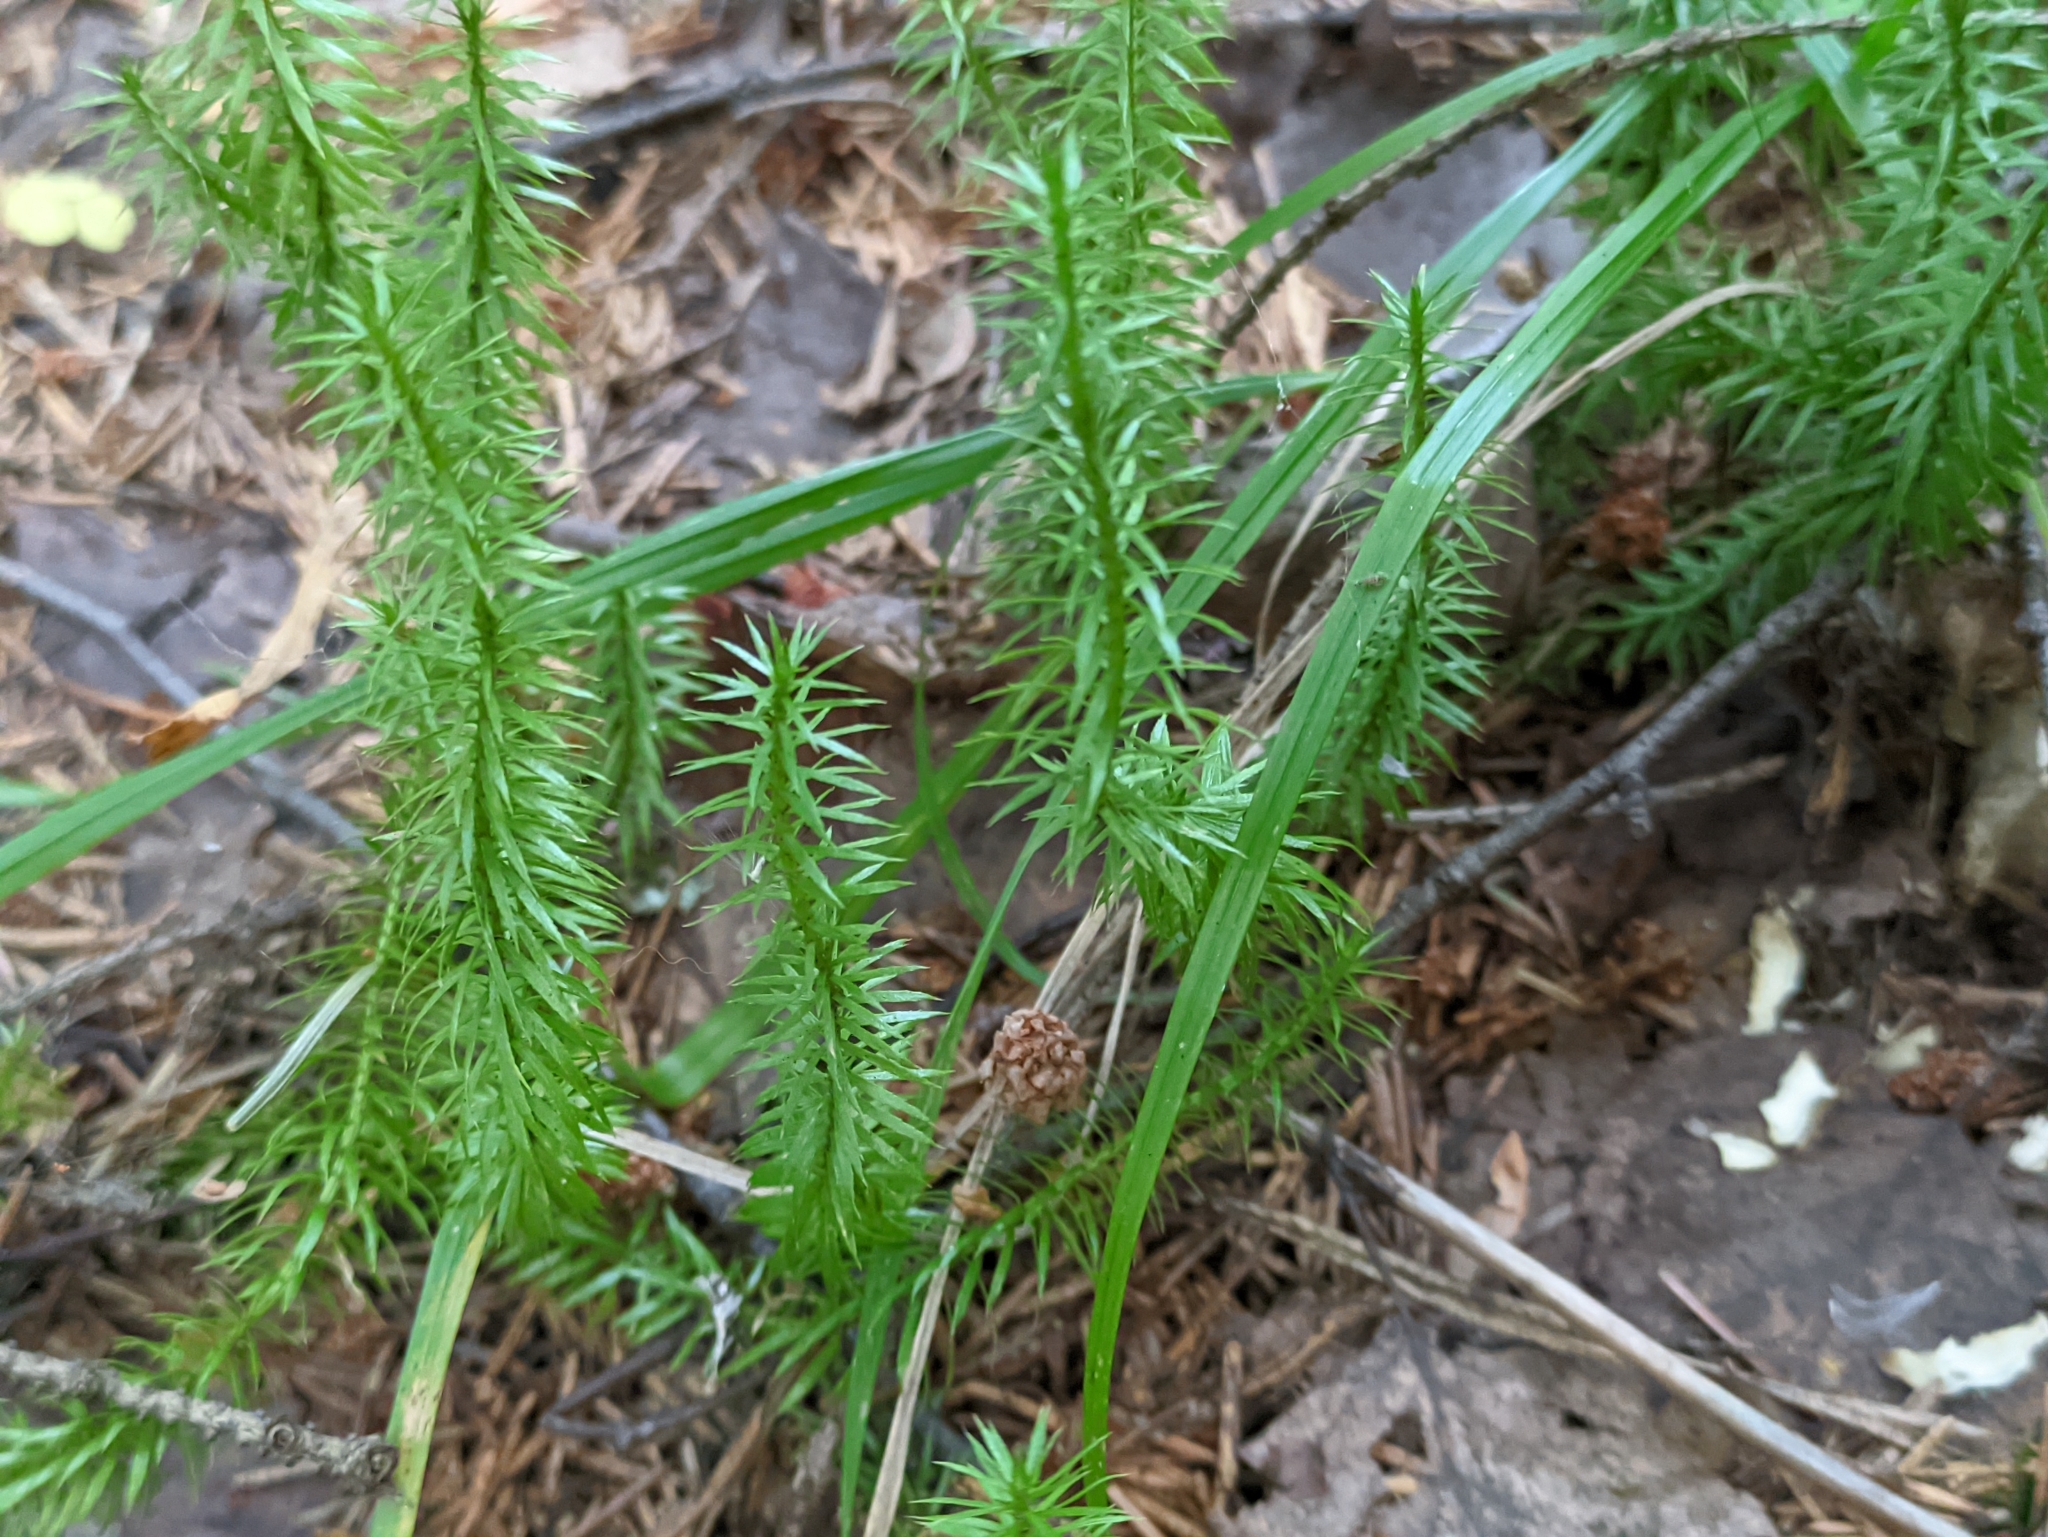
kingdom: Plantae
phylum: Tracheophyta
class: Lycopodiopsida
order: Lycopodiales
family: Lycopodiaceae
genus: Spinulum
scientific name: Spinulum annotinum
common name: Interrupted club-moss
